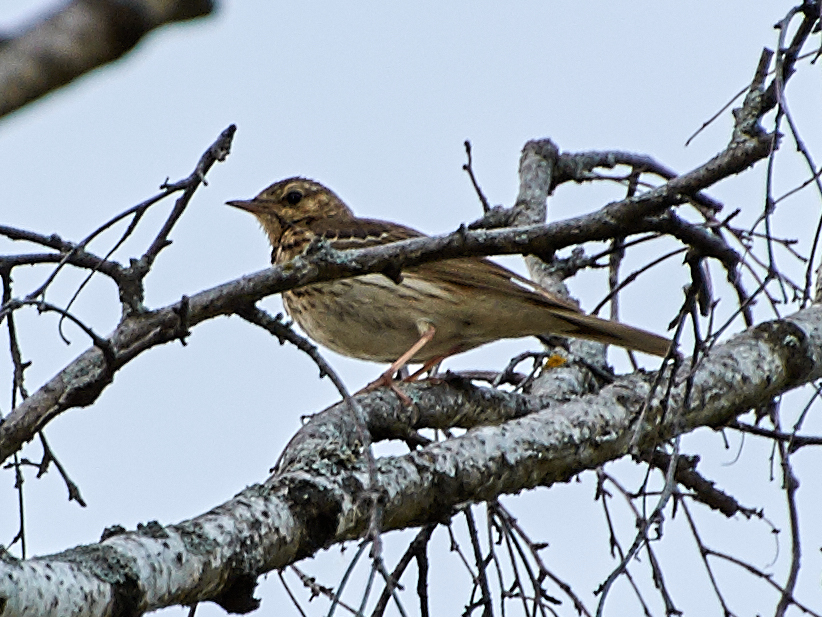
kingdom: Animalia
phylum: Chordata
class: Aves
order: Passeriformes
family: Motacillidae
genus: Anthus
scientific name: Anthus trivialis
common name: Tree pipit
